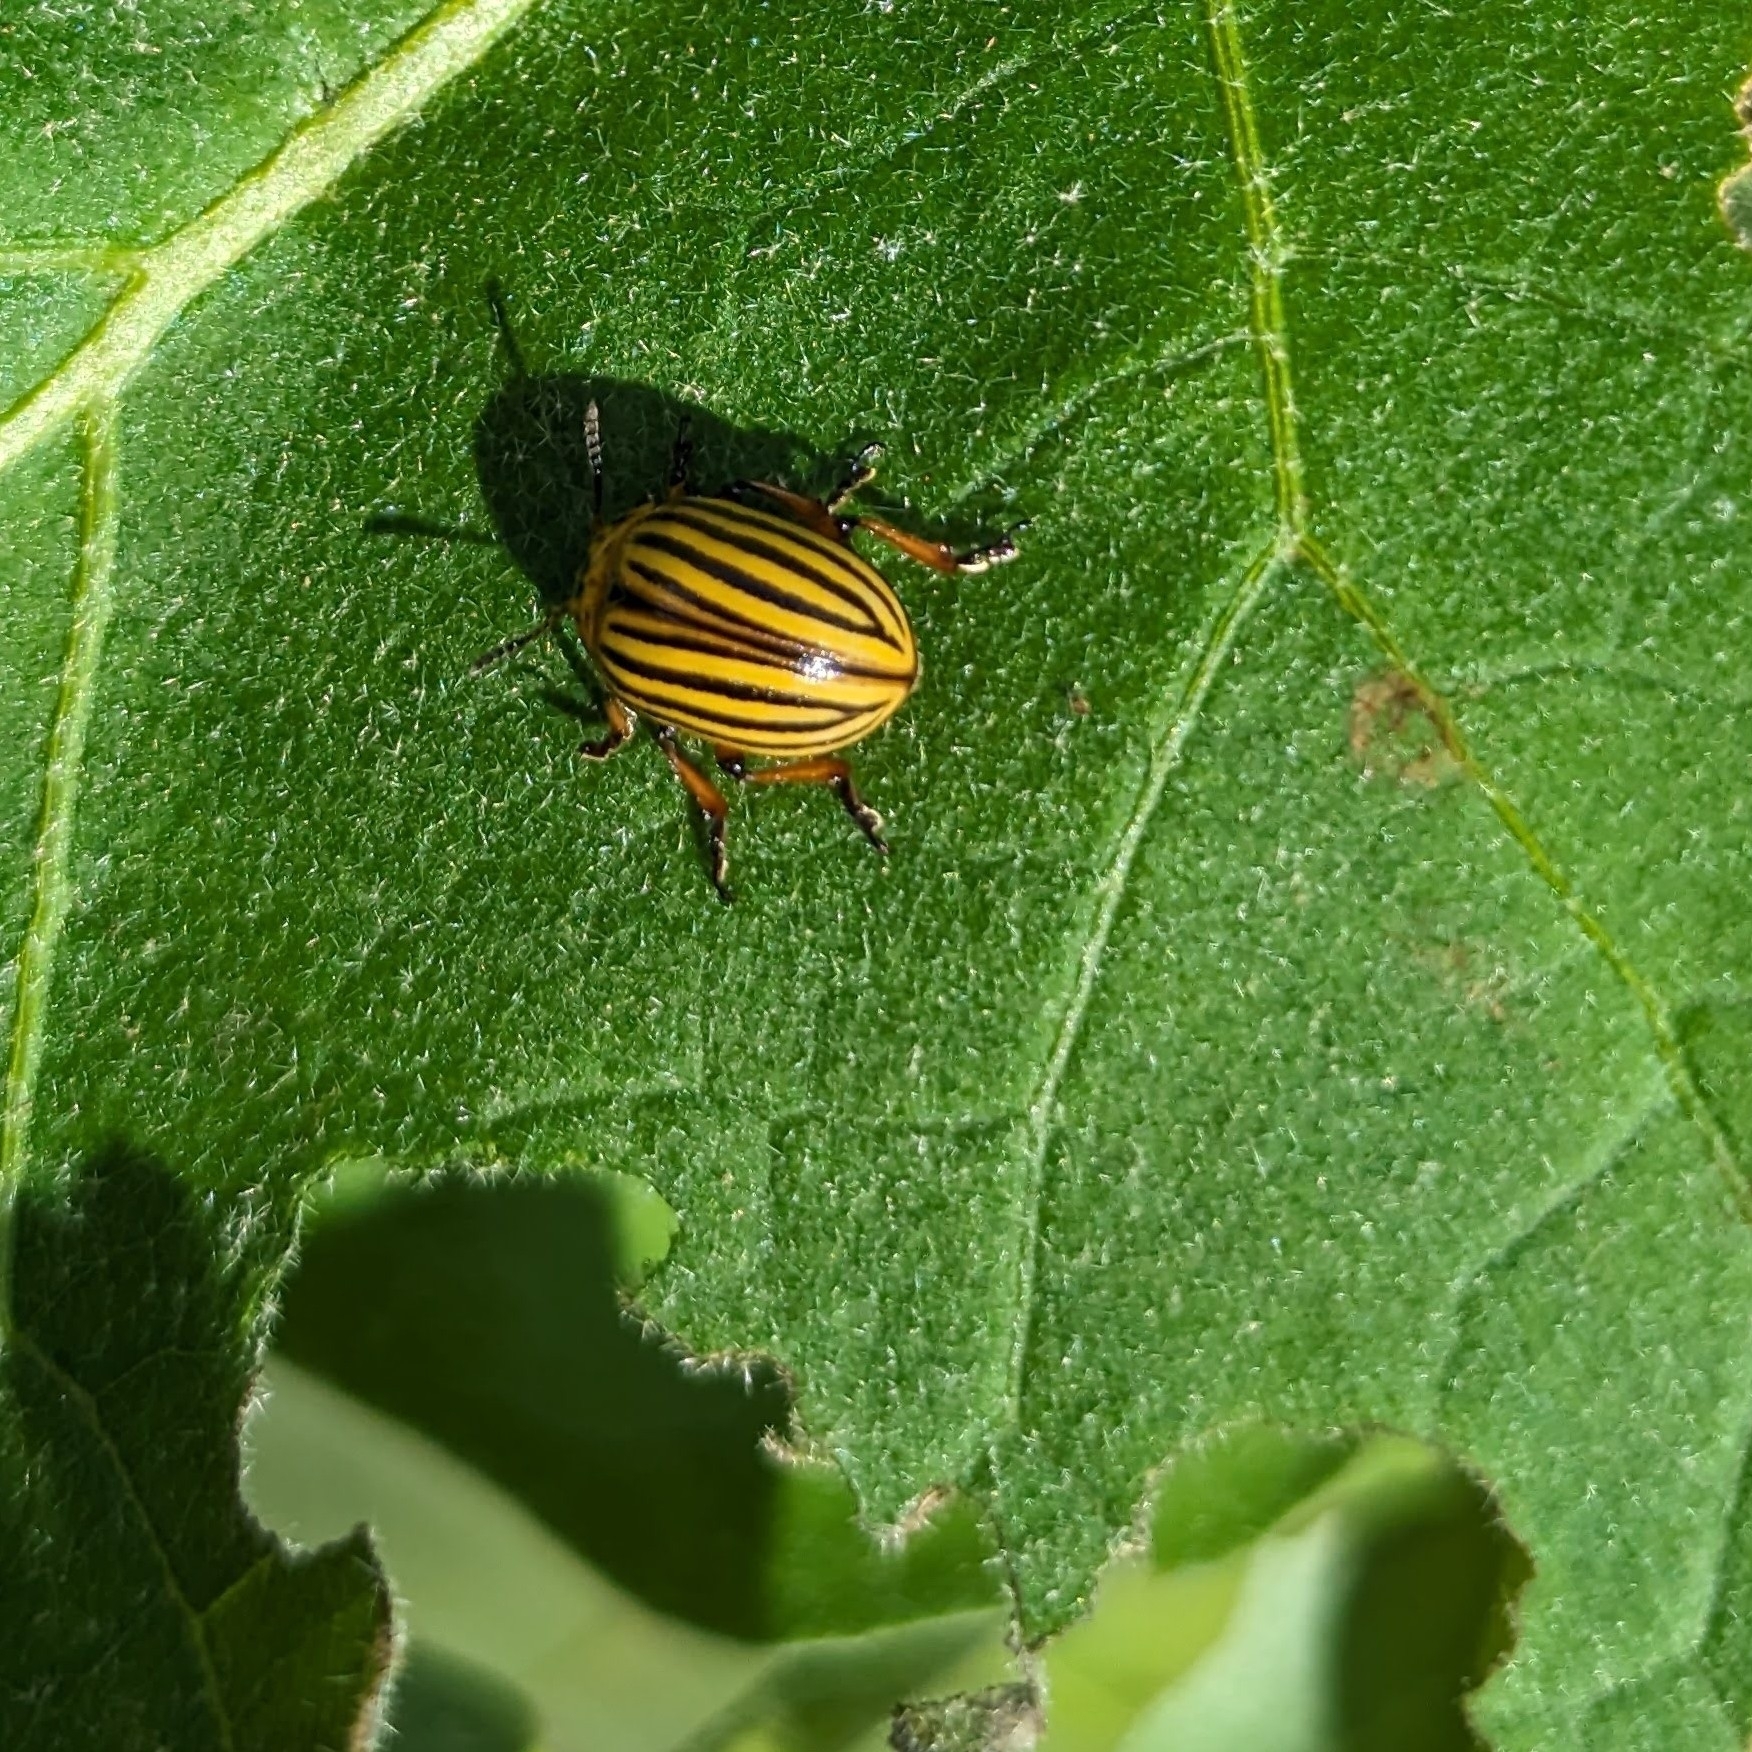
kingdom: Animalia
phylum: Arthropoda
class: Insecta
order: Coleoptera
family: Chrysomelidae
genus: Leptinotarsa
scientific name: Leptinotarsa decemlineata
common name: Colorado potato beetle
